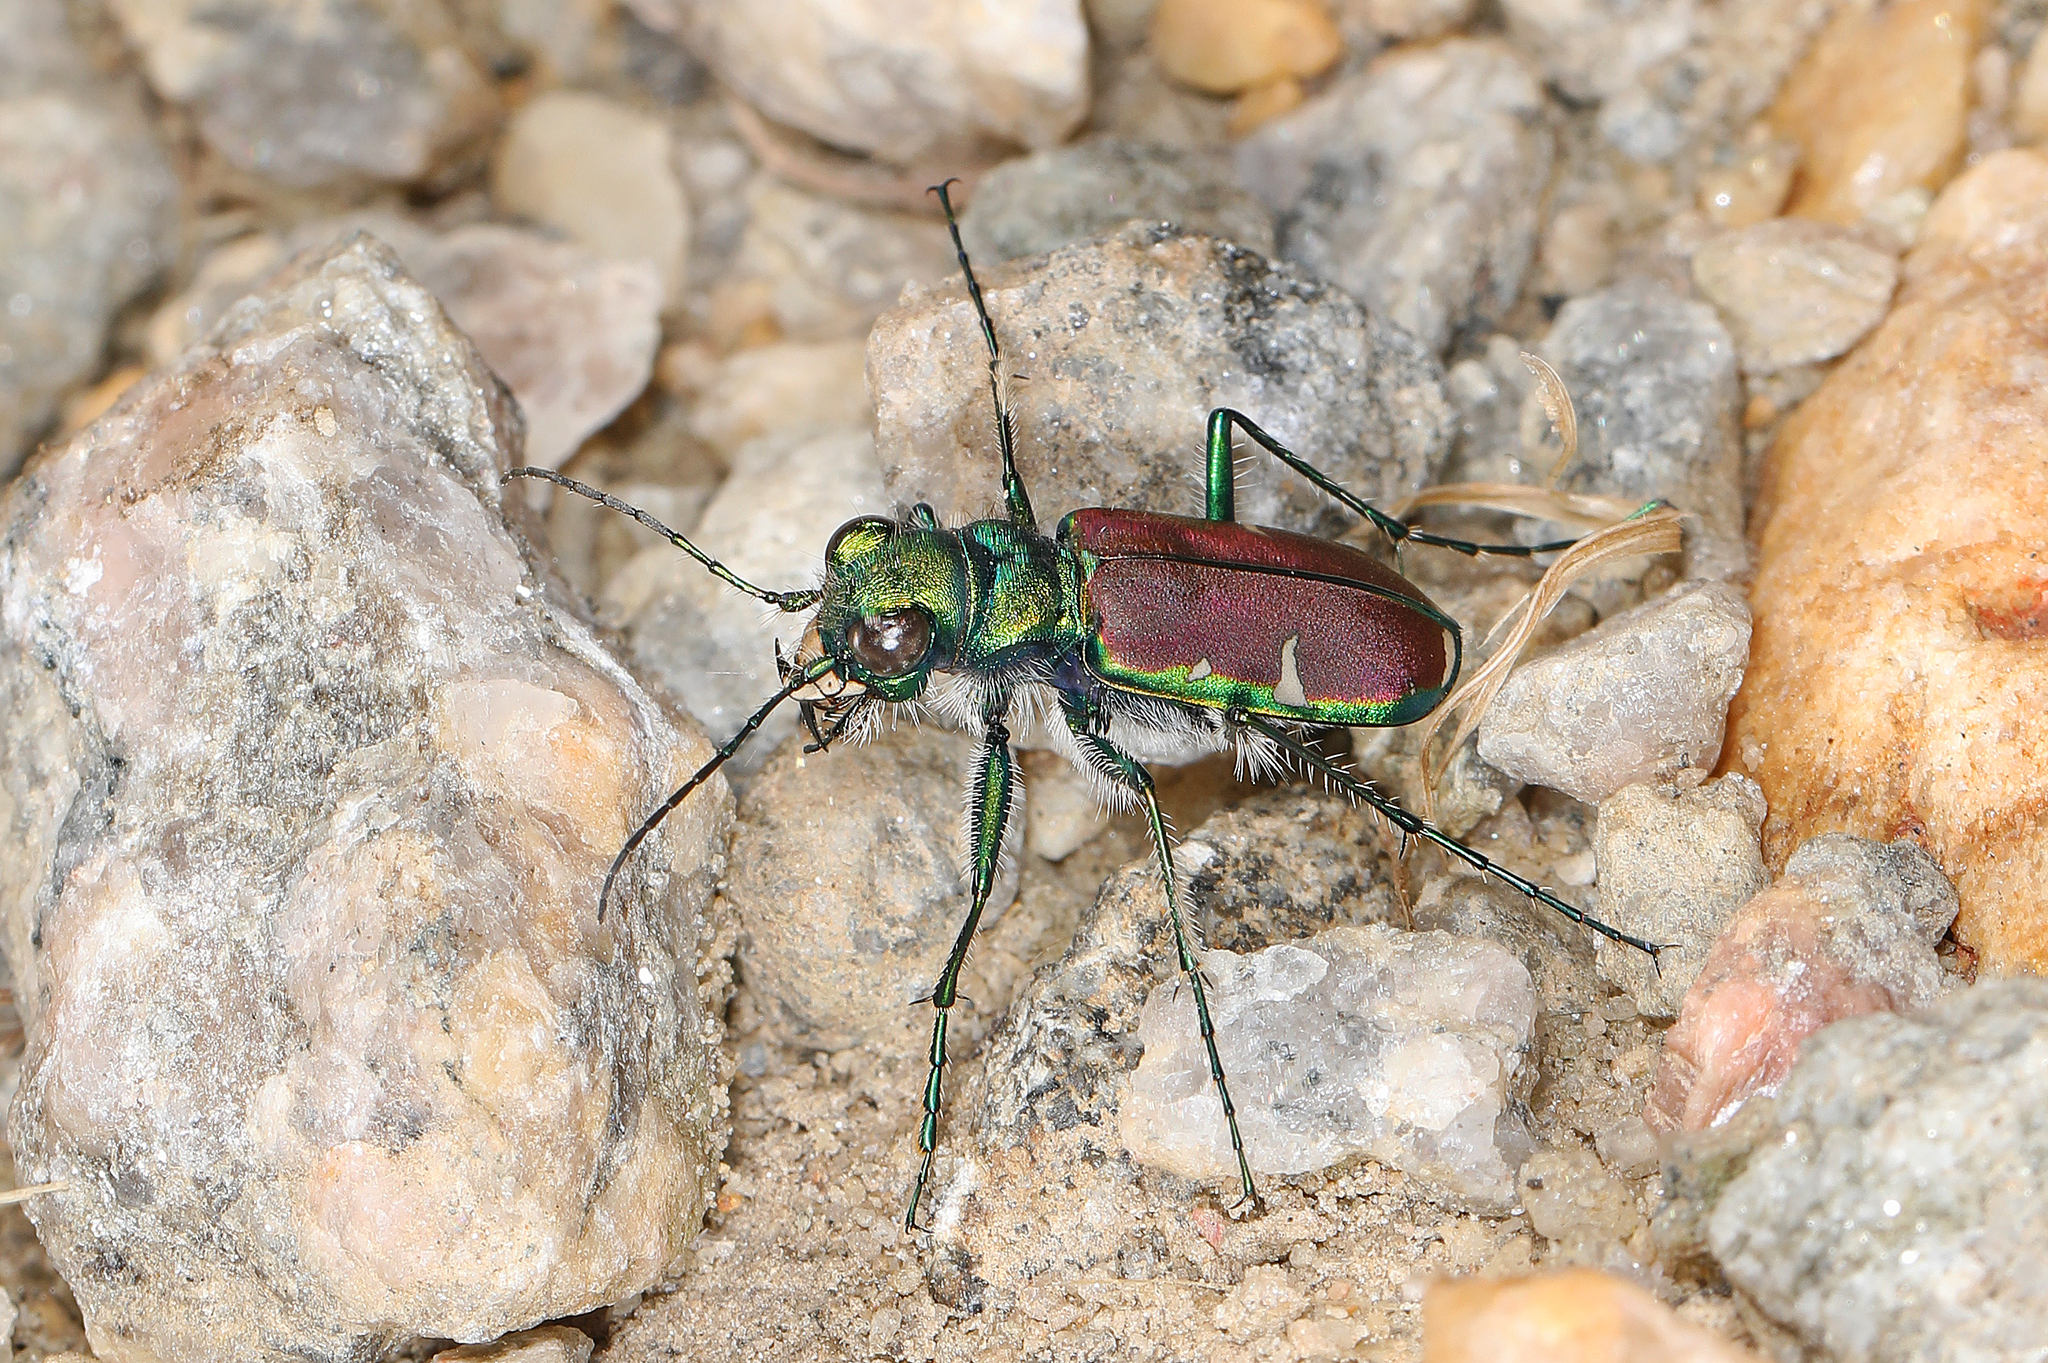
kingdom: Animalia
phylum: Arthropoda
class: Insecta
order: Coleoptera
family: Carabidae
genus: Cicindela
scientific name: Cicindela splendida
